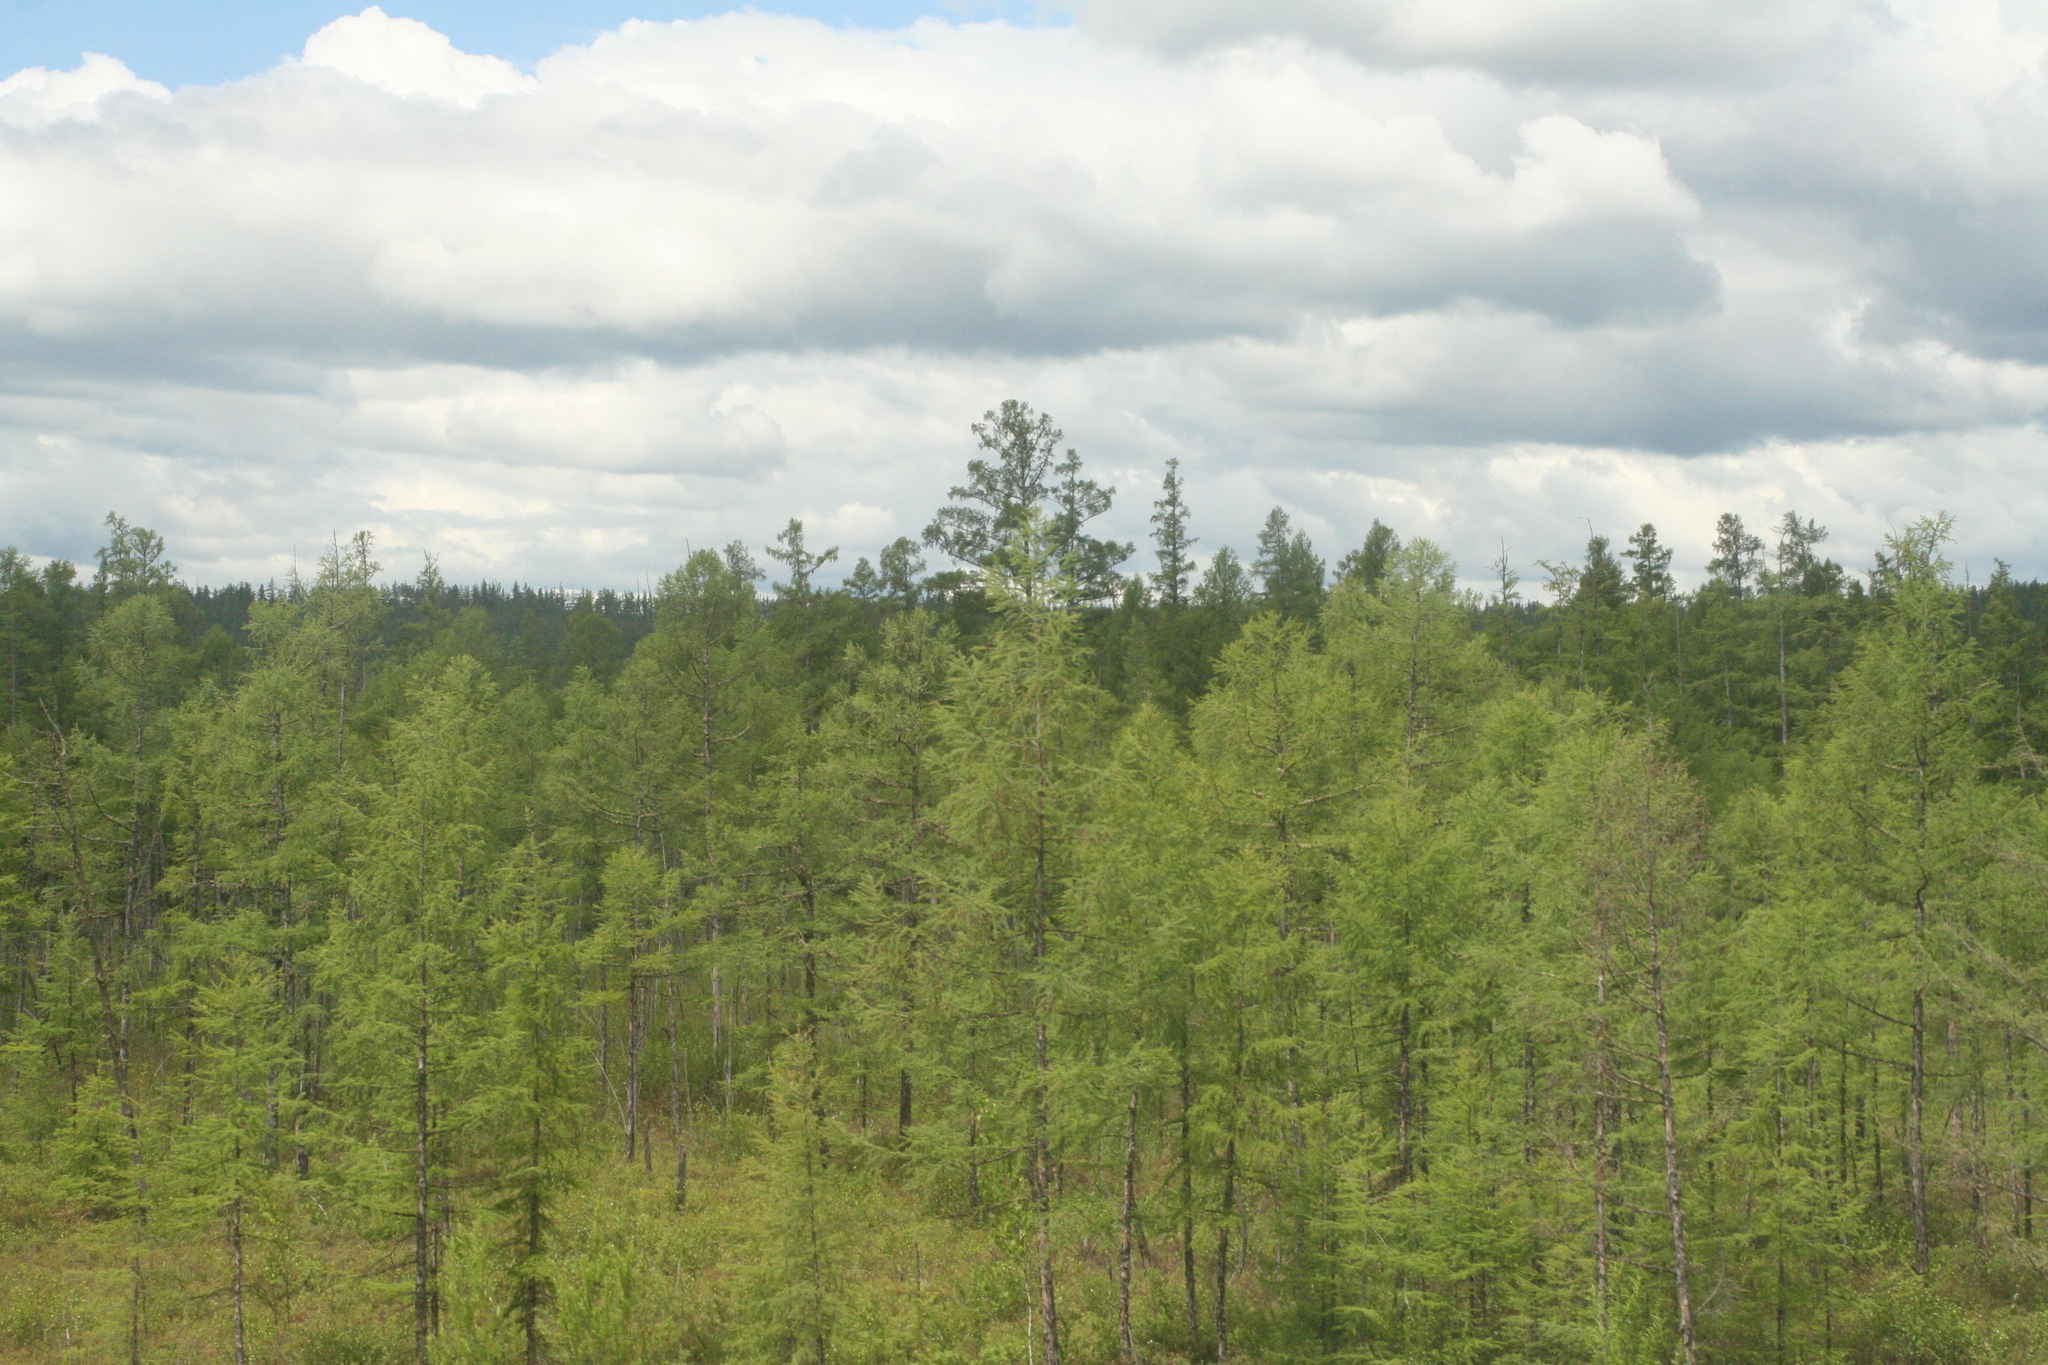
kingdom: Plantae
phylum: Tracheophyta
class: Pinopsida
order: Pinales
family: Pinaceae
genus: Larix
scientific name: Larix gmelinii
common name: Dahurian larch
